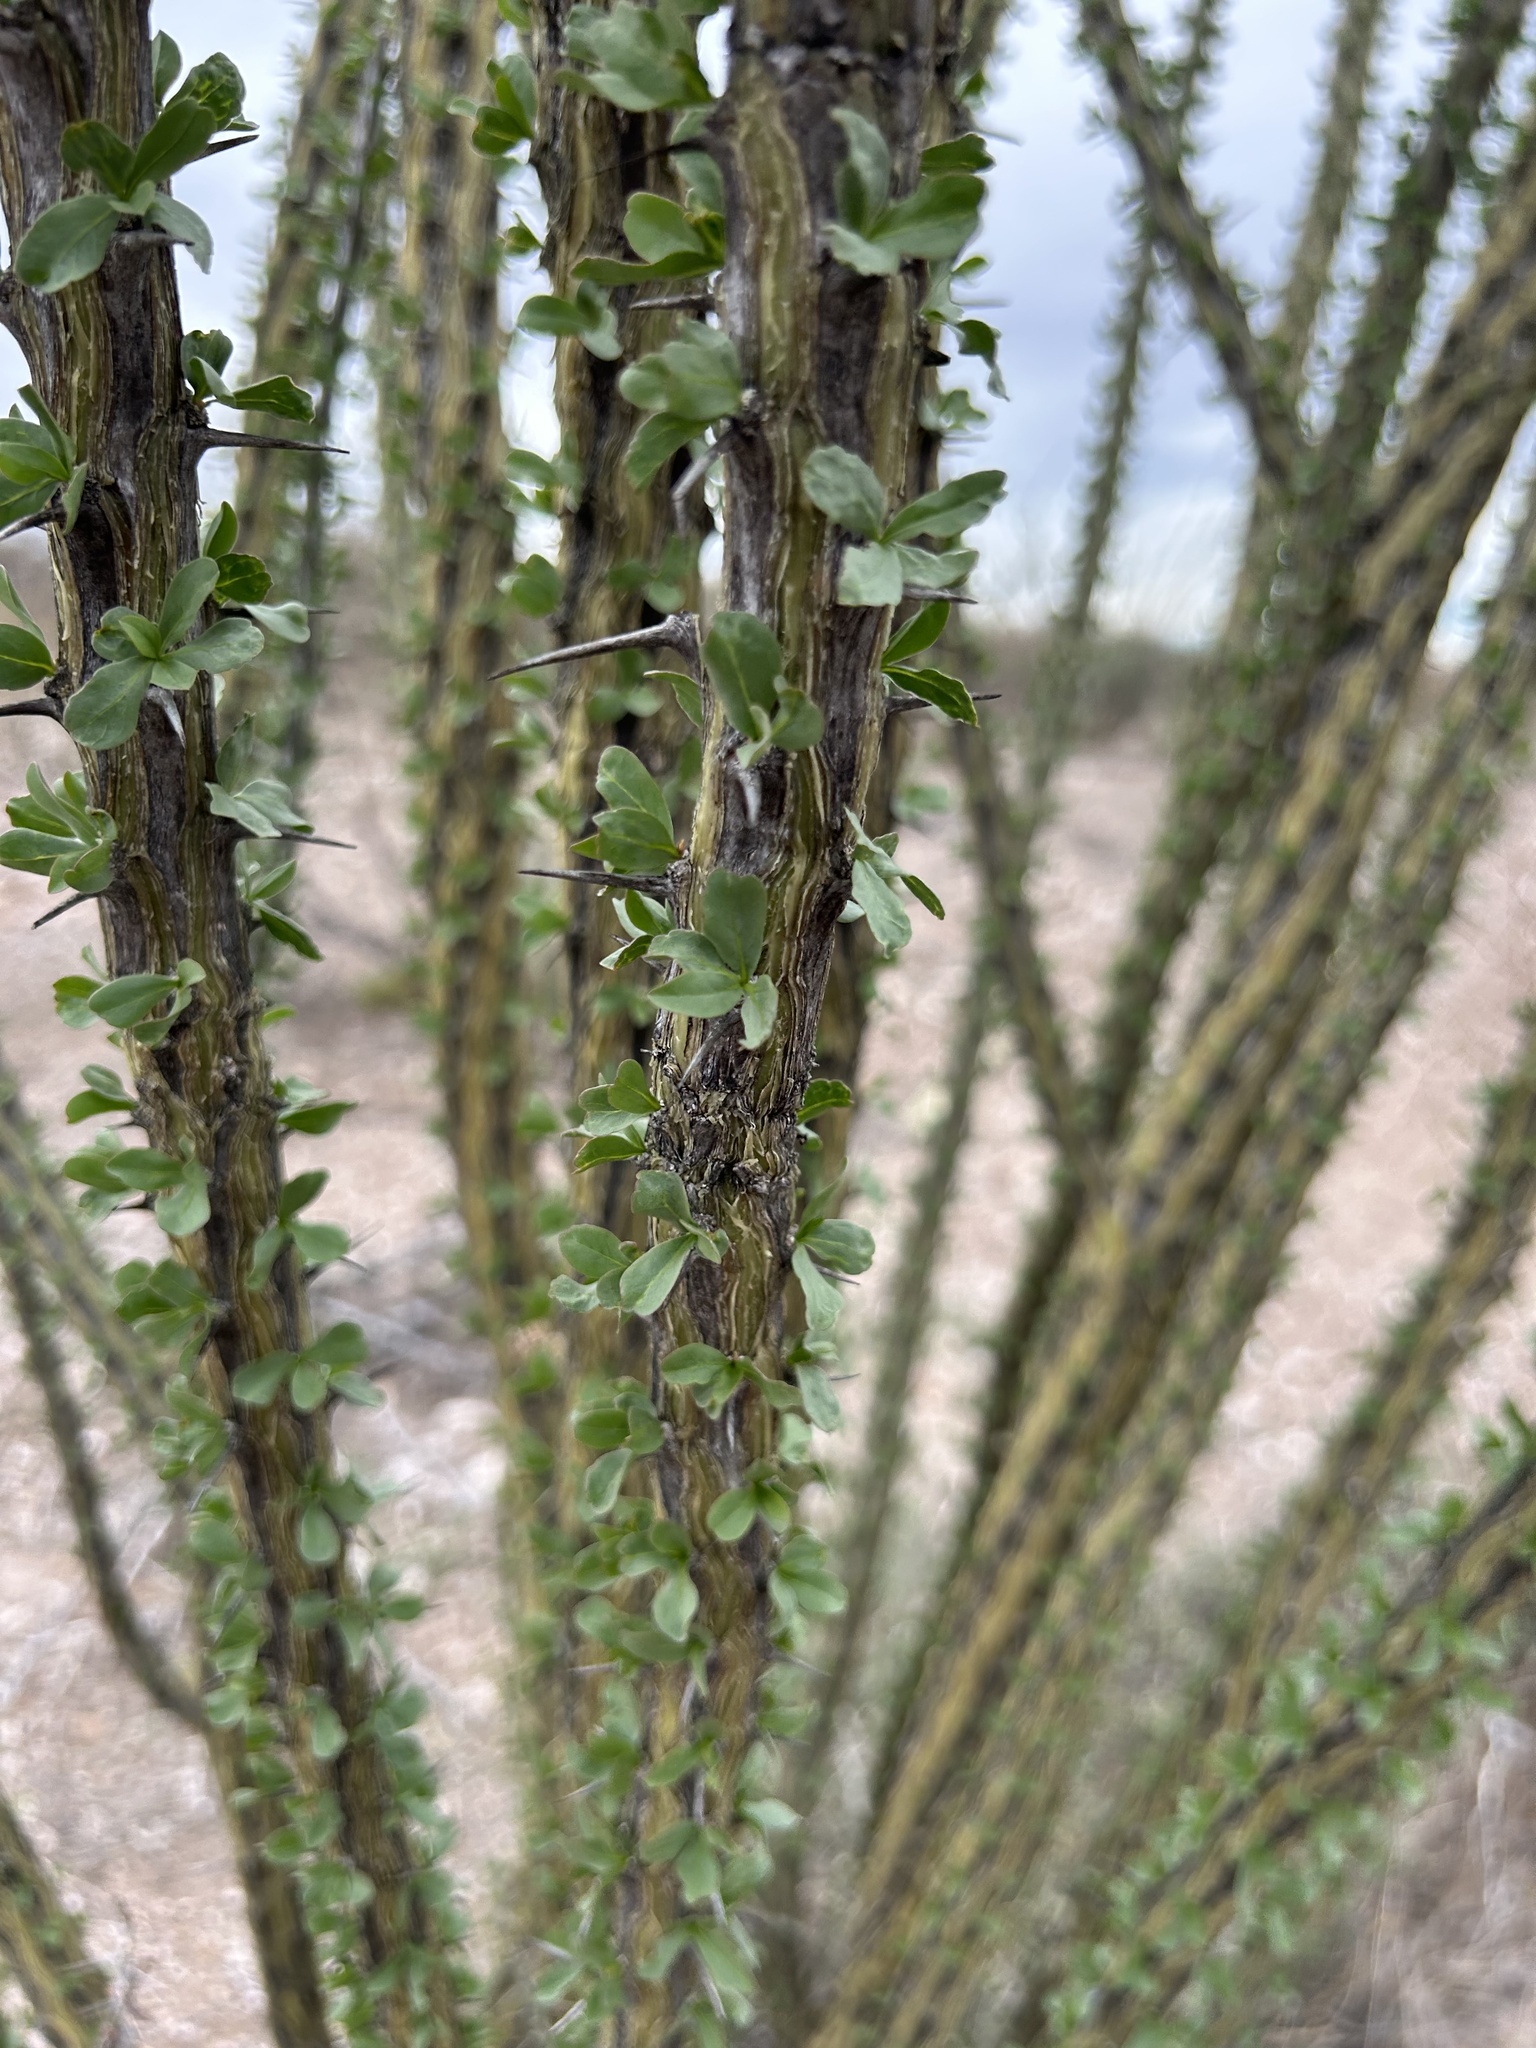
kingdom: Plantae
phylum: Tracheophyta
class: Magnoliopsida
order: Ericales
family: Fouquieriaceae
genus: Fouquieria
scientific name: Fouquieria splendens
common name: Vine-cactus
